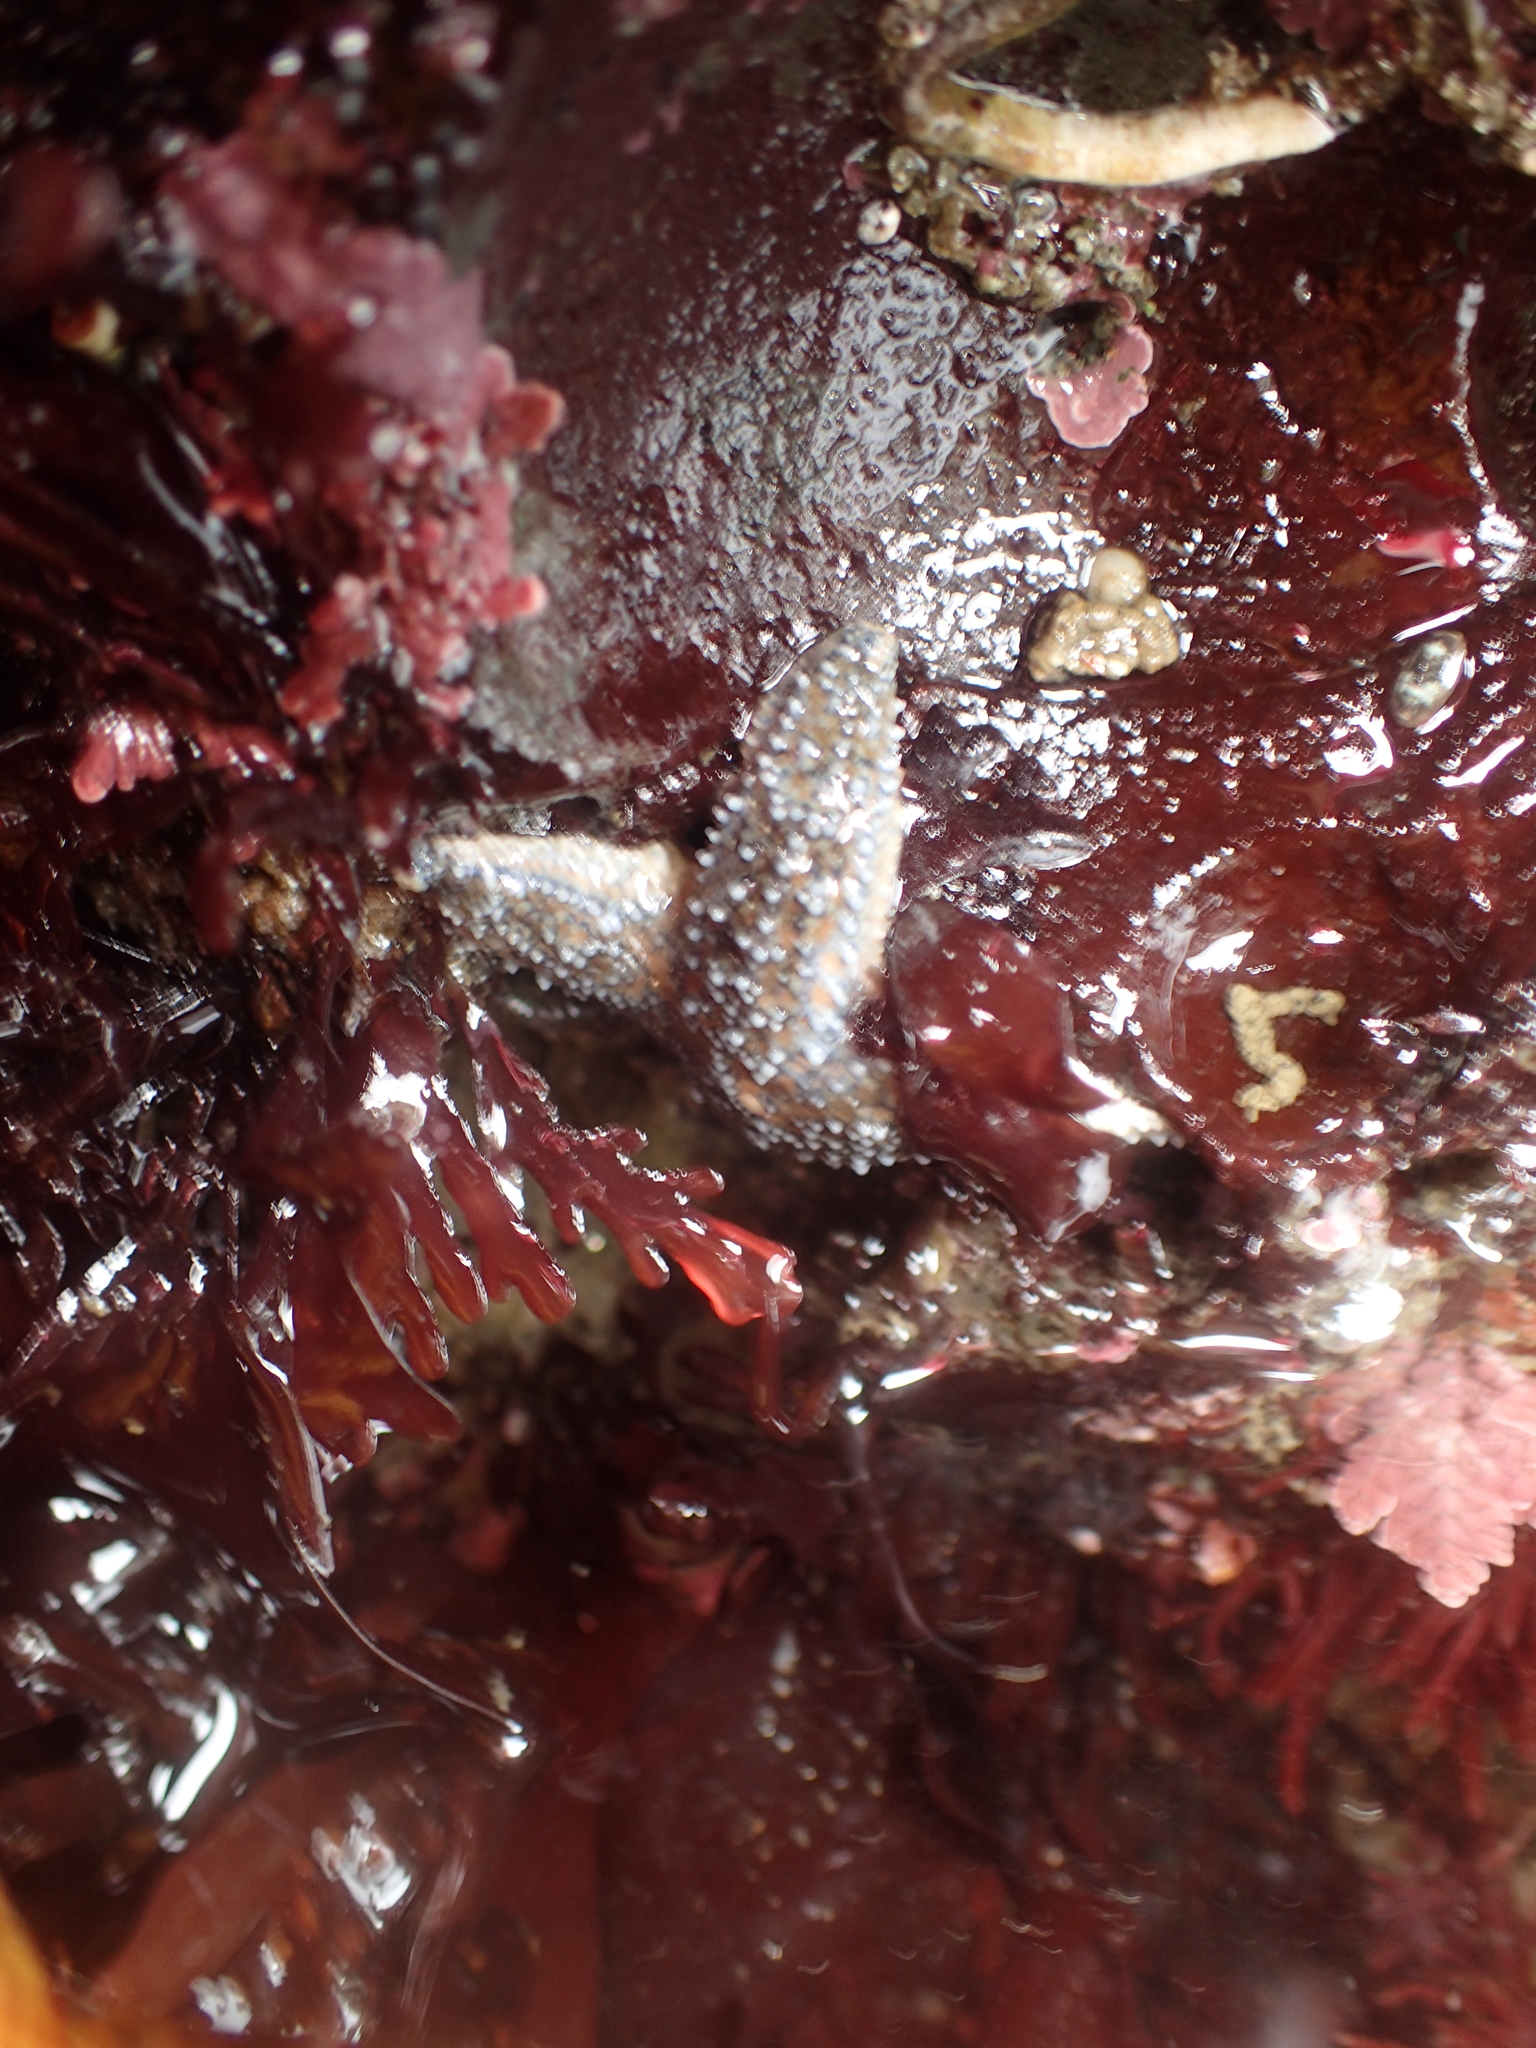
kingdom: Animalia
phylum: Echinodermata
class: Asteroidea
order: Forcipulatida
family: Asteriidae
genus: Pisaster
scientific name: Pisaster ochraceus
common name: Ochre stars
